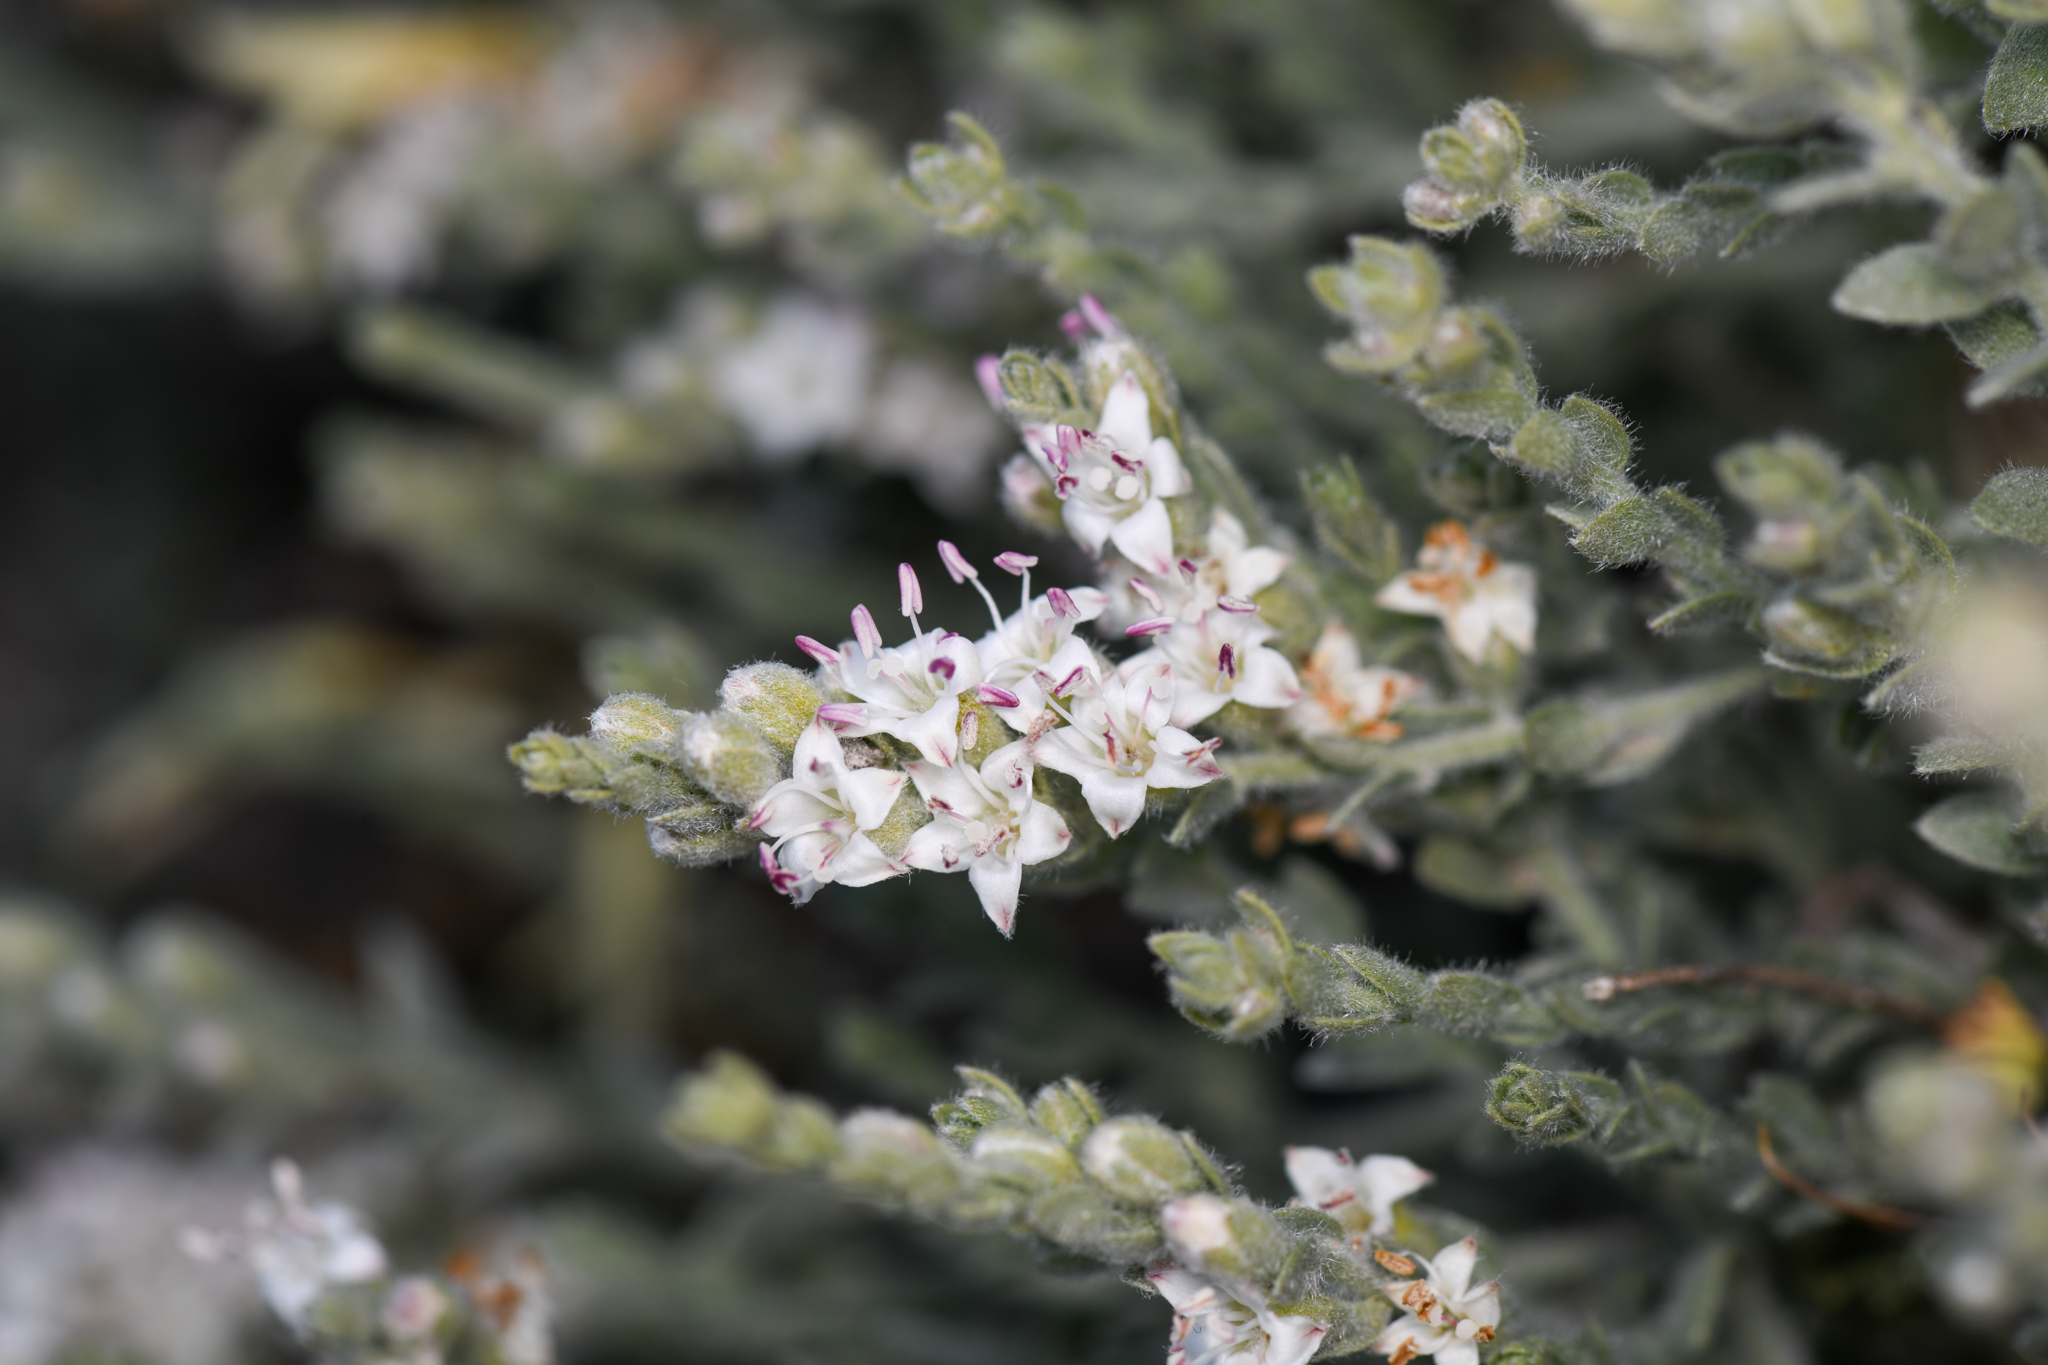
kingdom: Plantae
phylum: Tracheophyta
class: Magnoliopsida
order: Solanales
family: Convolvulaceae
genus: Cressa
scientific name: Cressa truxillensis
